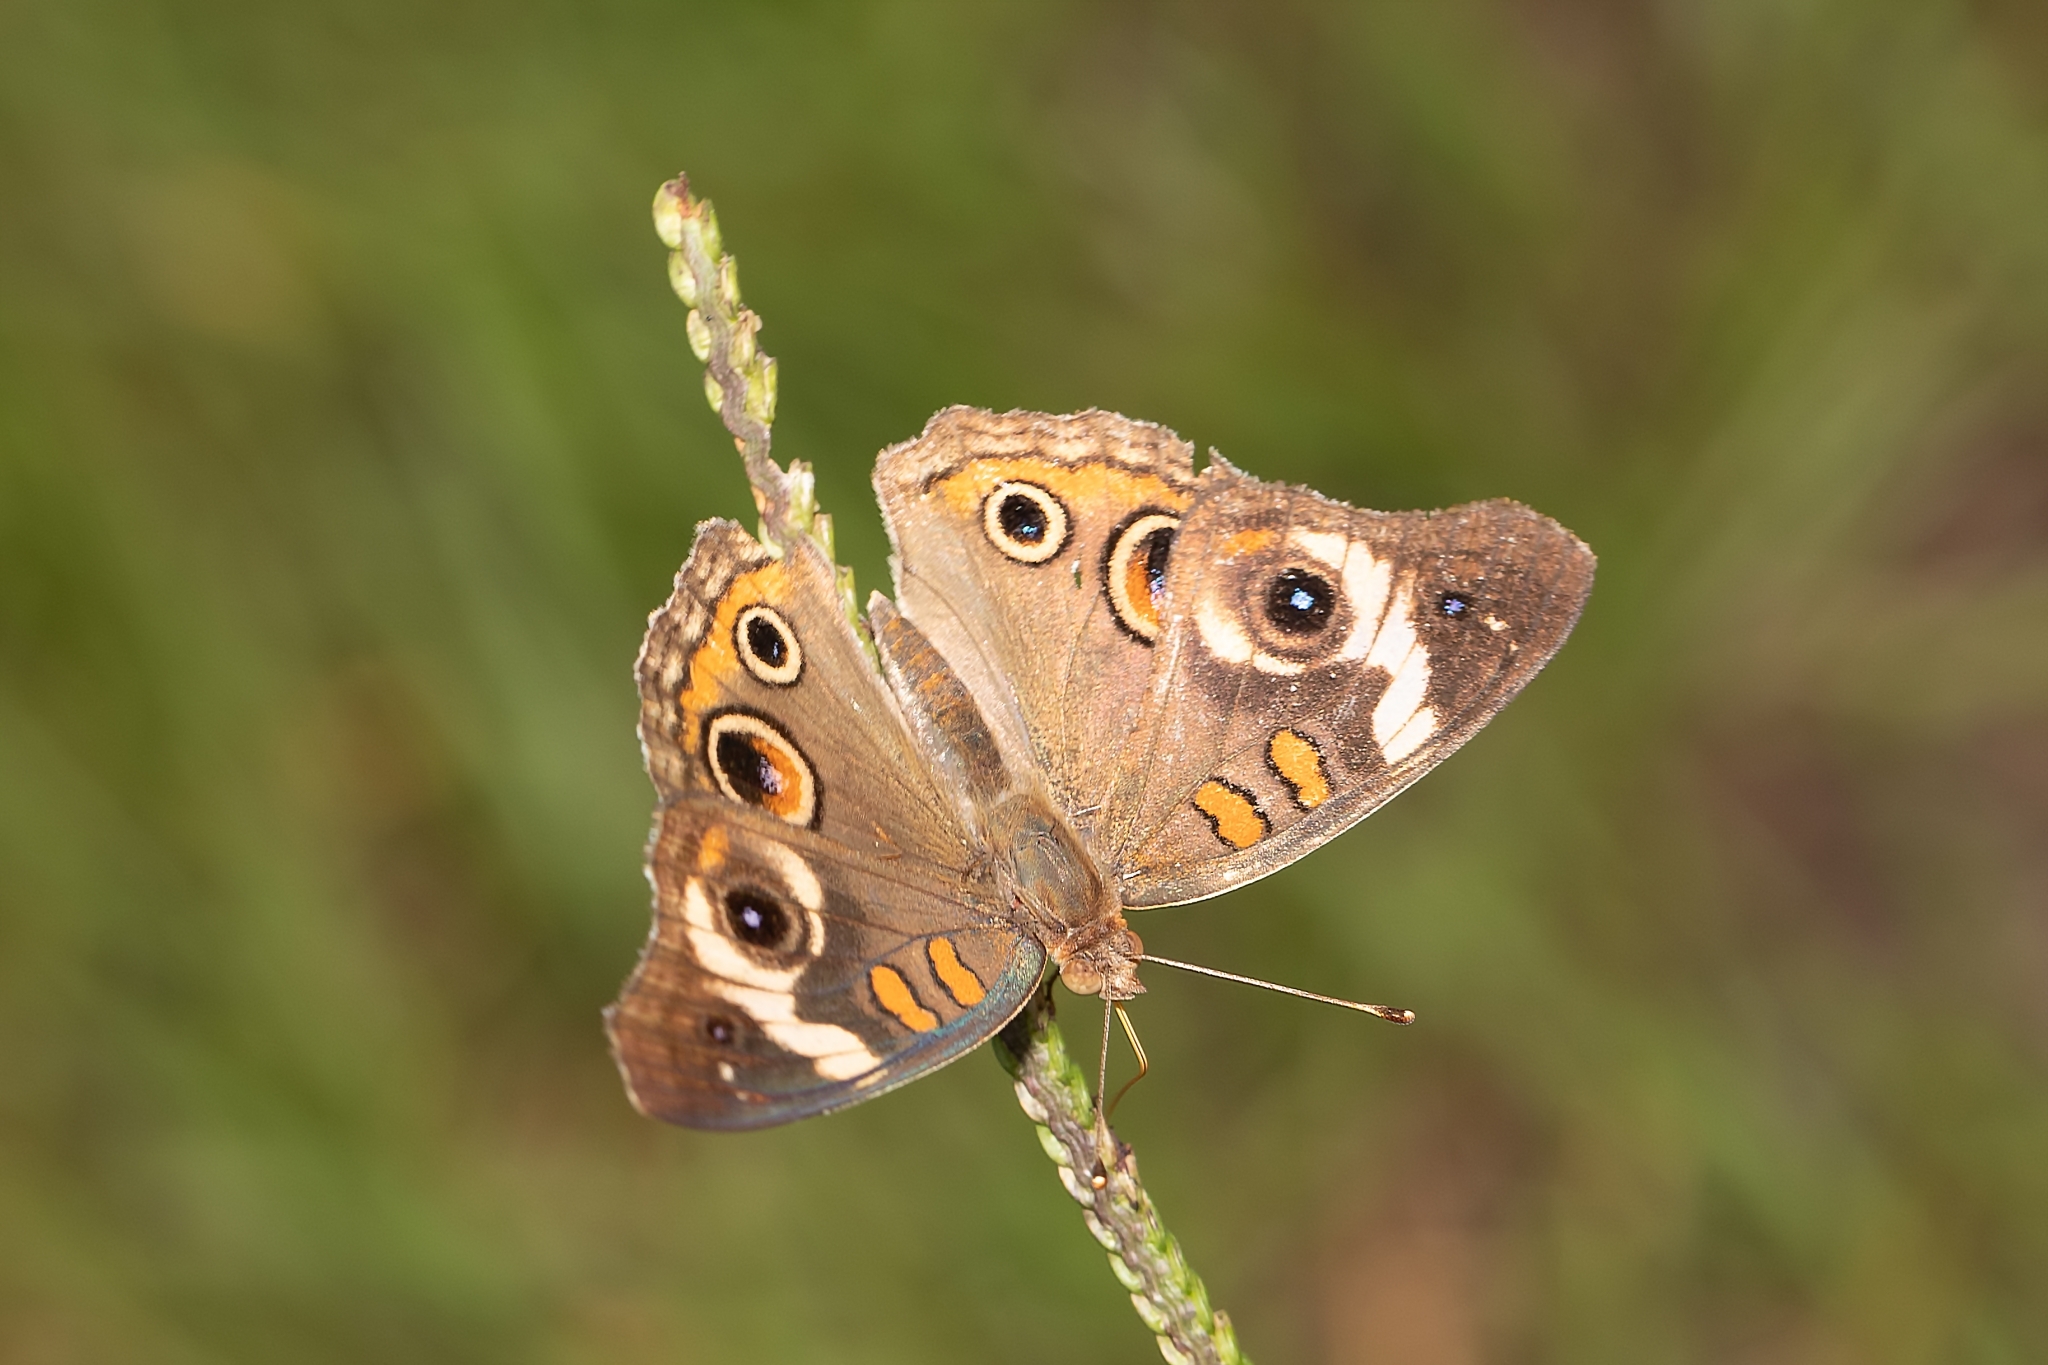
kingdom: Animalia
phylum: Arthropoda
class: Insecta
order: Lepidoptera
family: Nymphalidae
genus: Junonia
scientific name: Junonia coenia
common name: Common buckeye
